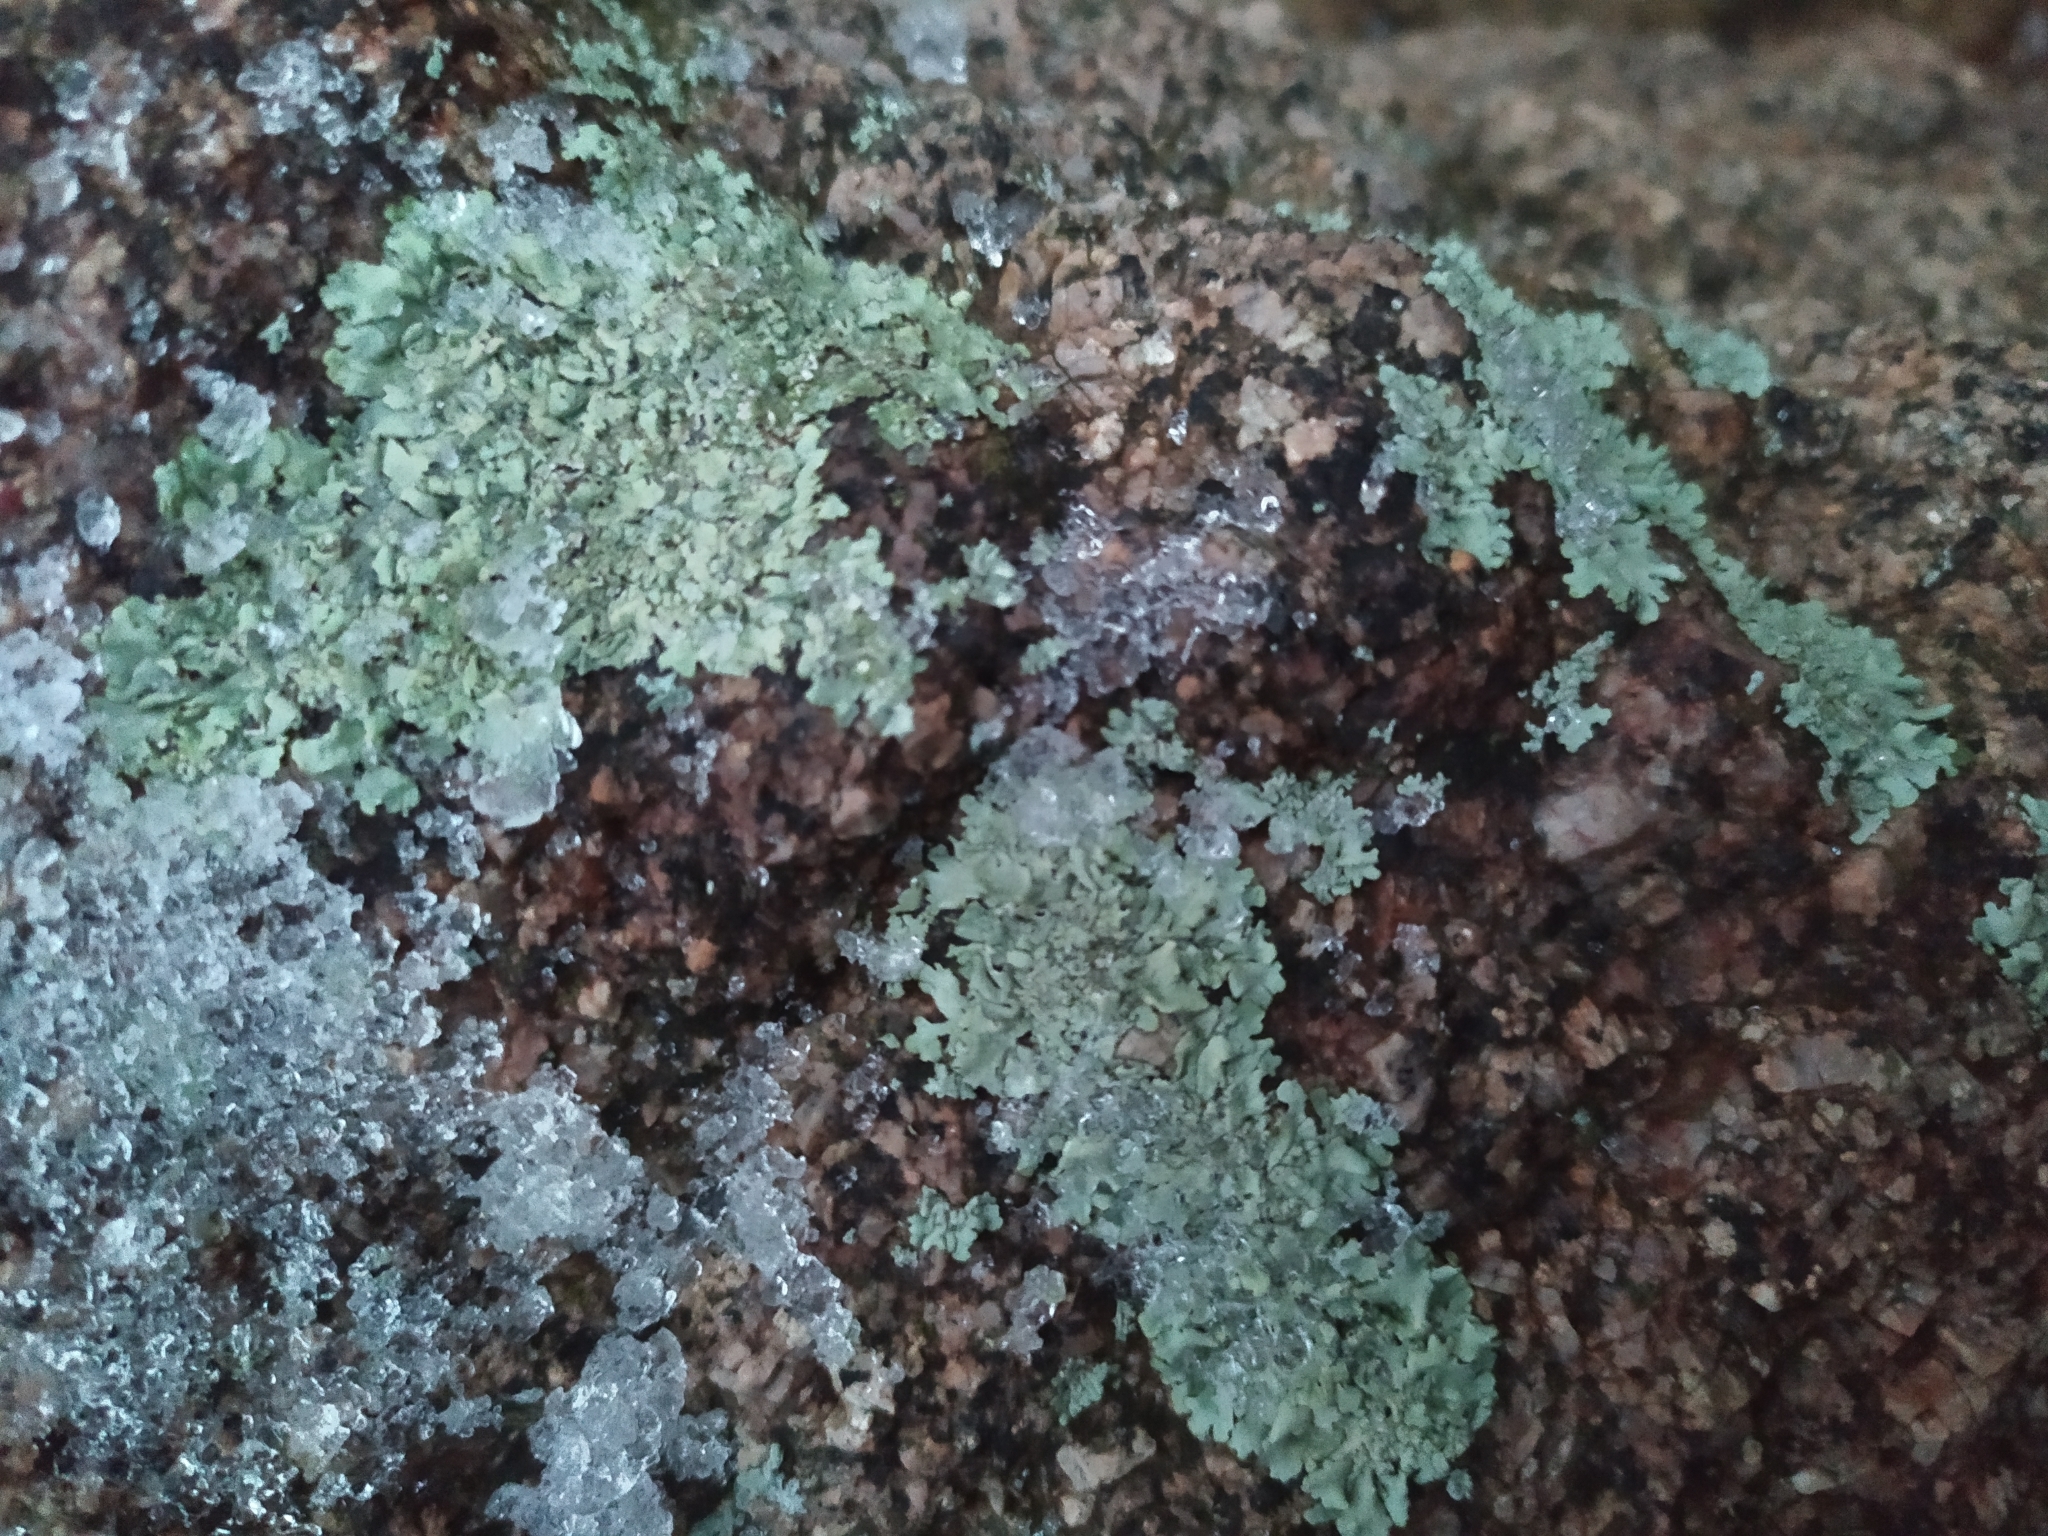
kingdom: Fungi
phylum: Ascomycota
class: Lecanoromycetes
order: Lecanorales
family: Parmeliaceae
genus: Xanthoparmelia
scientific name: Xanthoparmelia stenophylla
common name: Shingled rock shield
